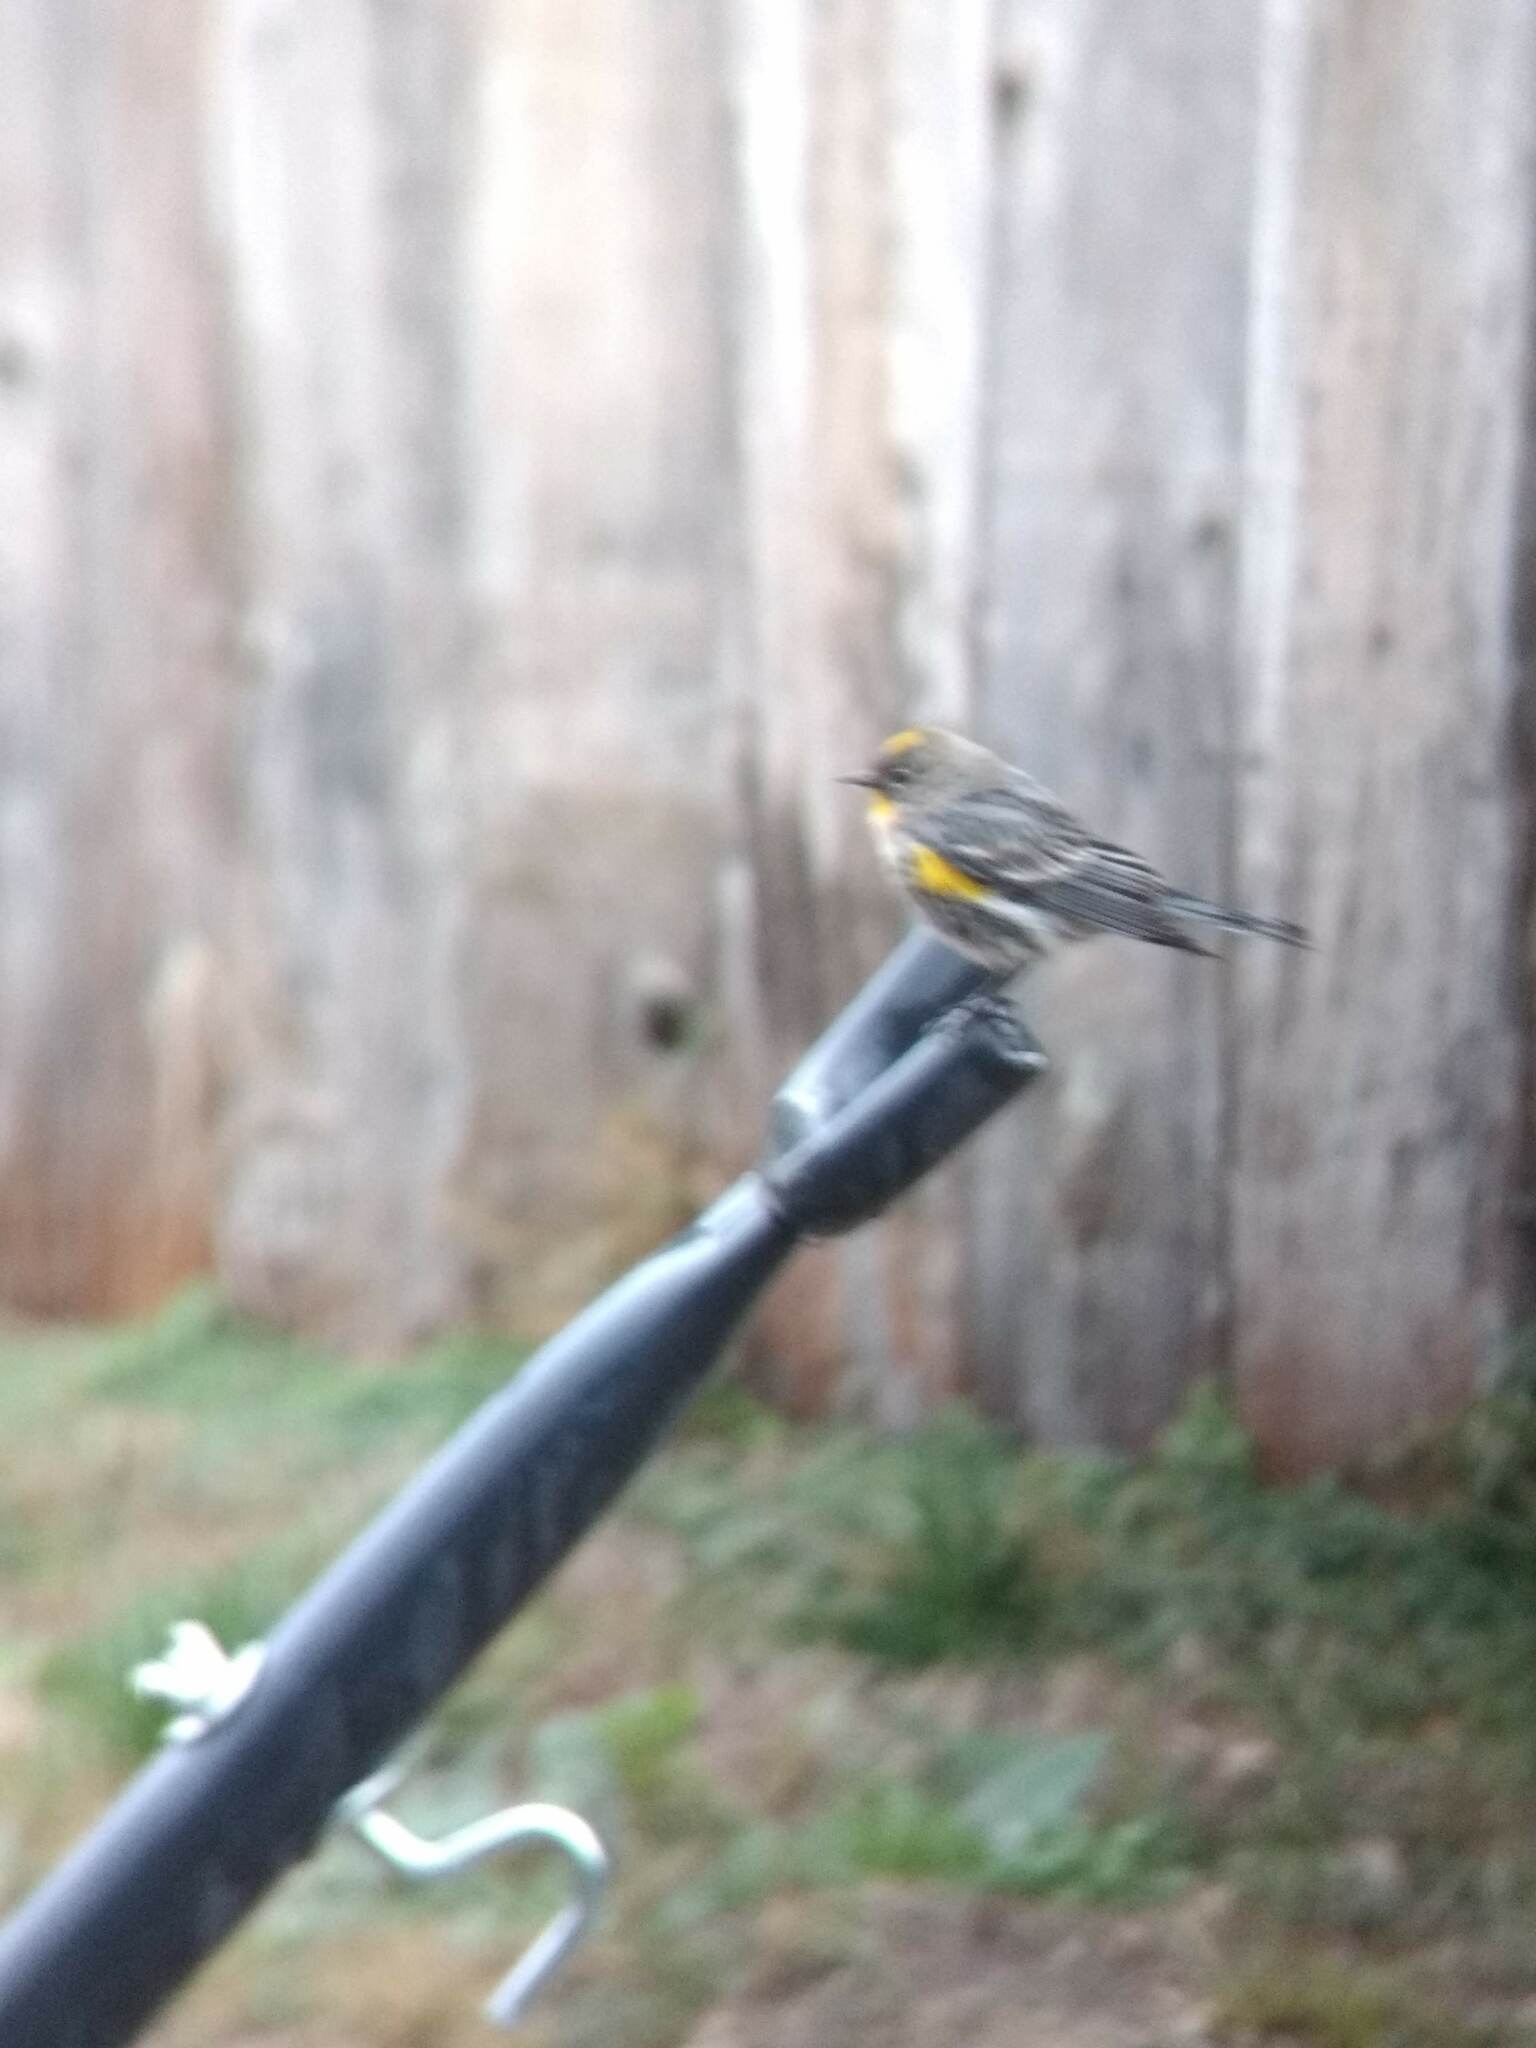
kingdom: Animalia
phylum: Chordata
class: Aves
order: Passeriformes
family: Parulidae
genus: Setophaga
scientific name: Setophaga coronata
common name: Myrtle warbler
